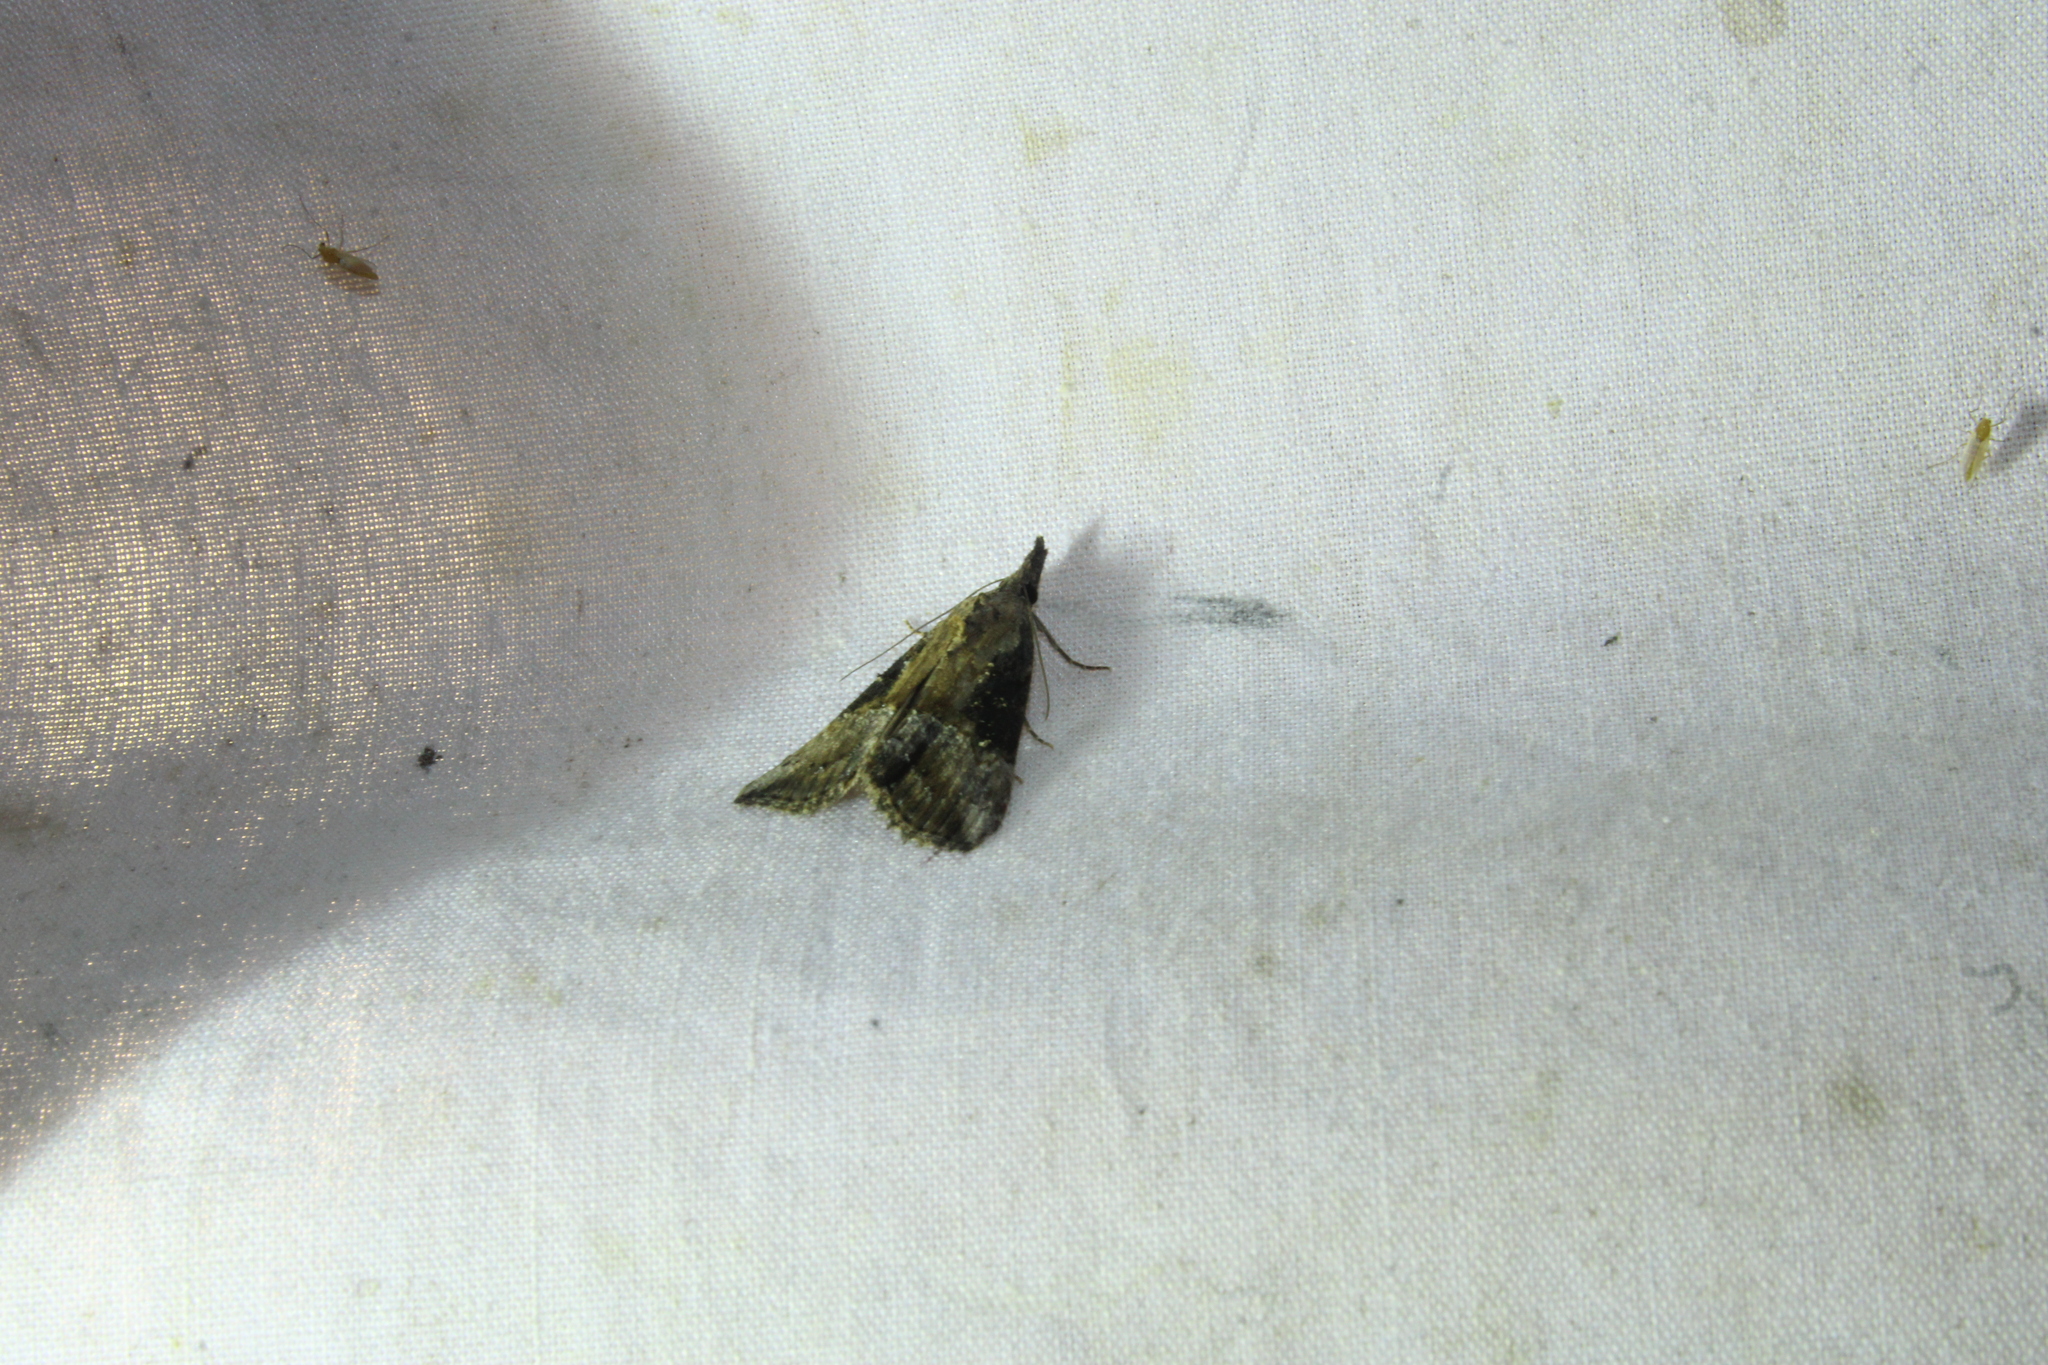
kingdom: Animalia
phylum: Arthropoda
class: Insecta
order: Lepidoptera
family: Erebidae
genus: Hypena
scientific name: Hypena scabra
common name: Green cloverworm
